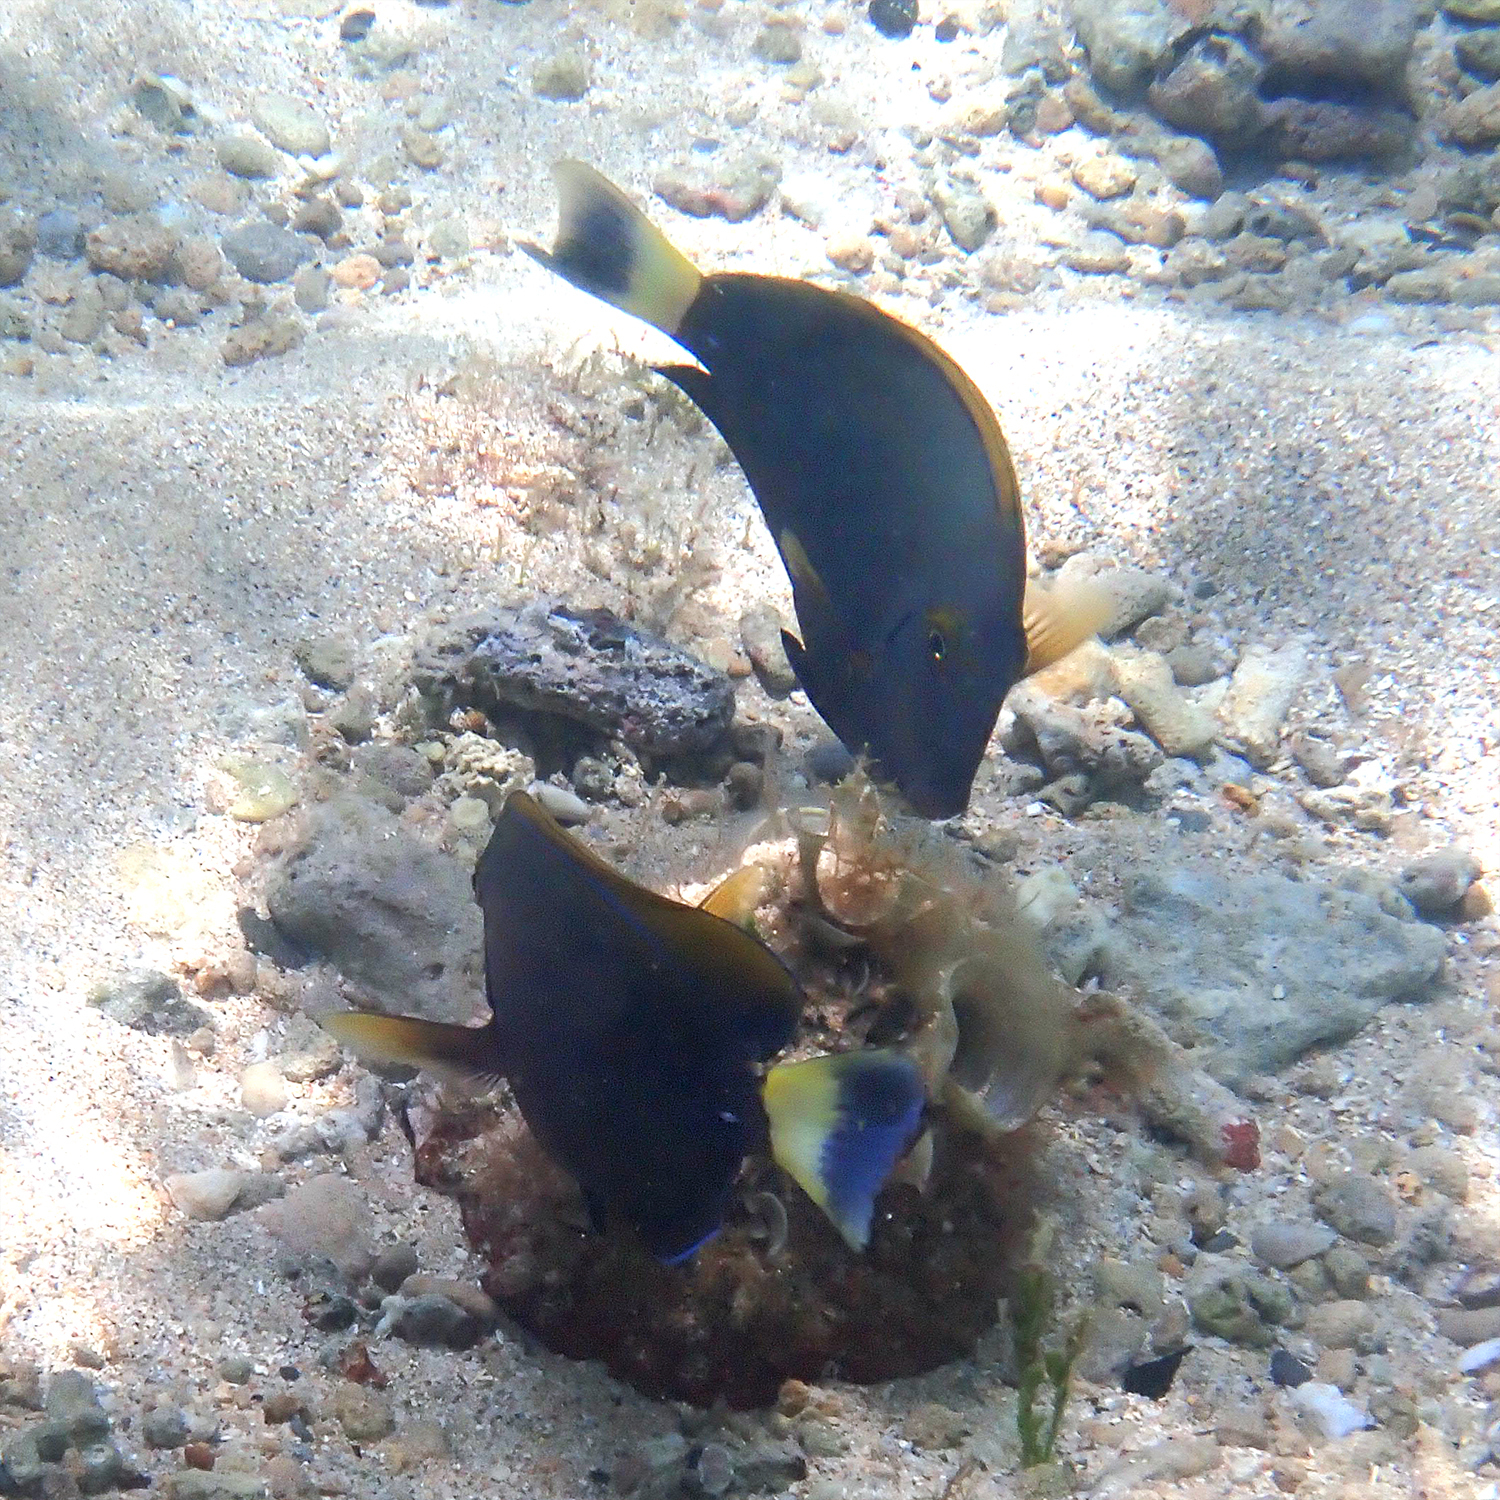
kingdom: Animalia
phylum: Chordata
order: Perciformes
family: Acanthuridae
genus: Acanthurus
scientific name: Acanthurus dussumieri
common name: Dussumier's surgeonfish
